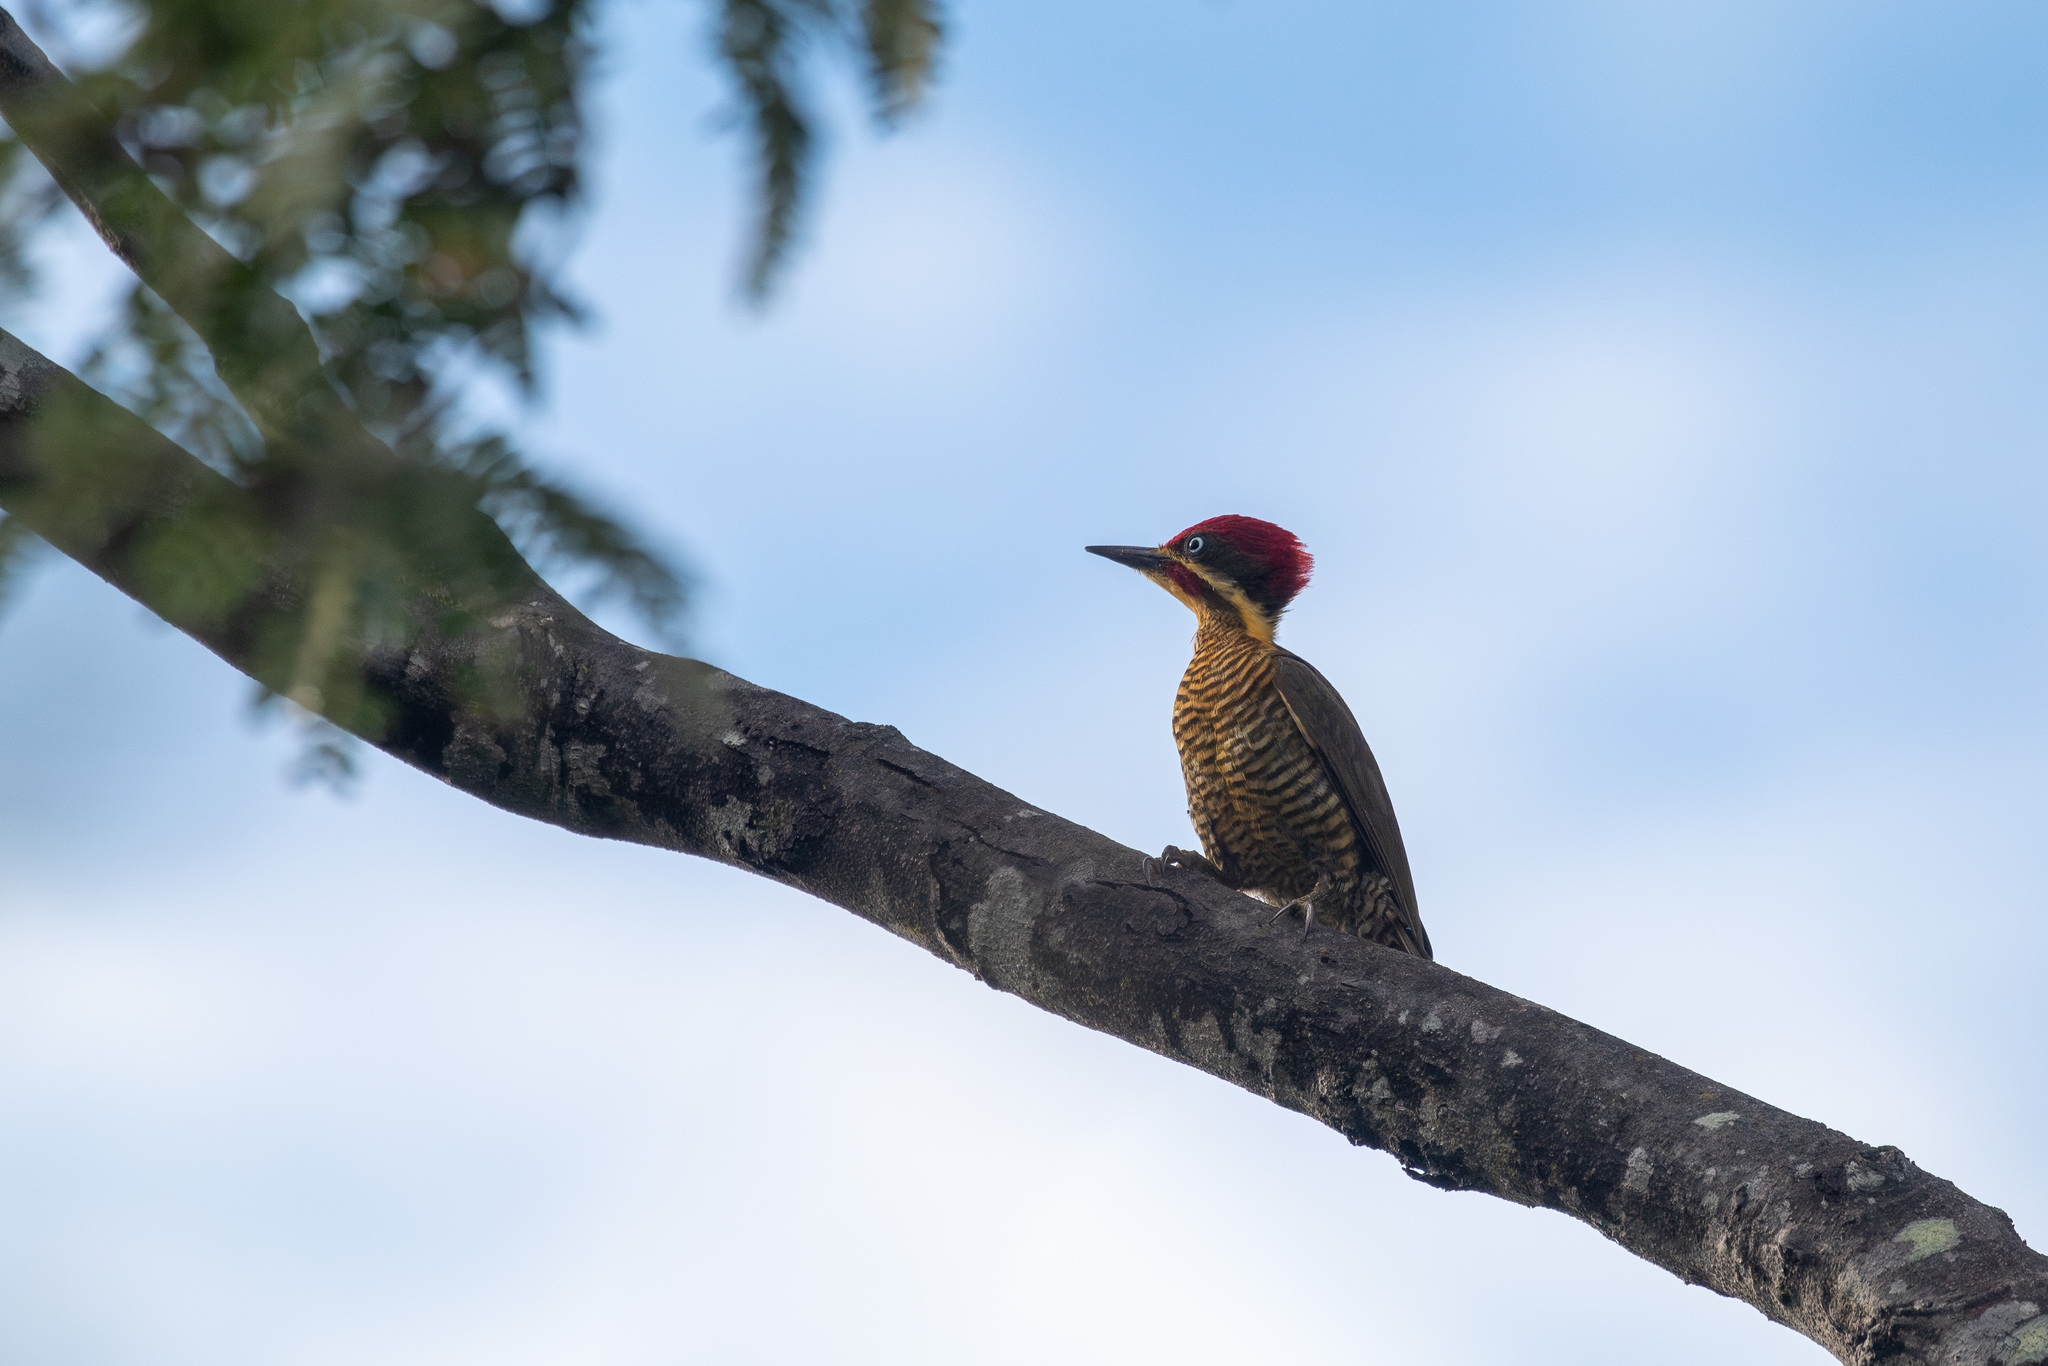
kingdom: Animalia
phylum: Chordata
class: Aves
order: Piciformes
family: Picidae
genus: Piculus
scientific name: Piculus chrysochloros
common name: Golden-green woodpecker
